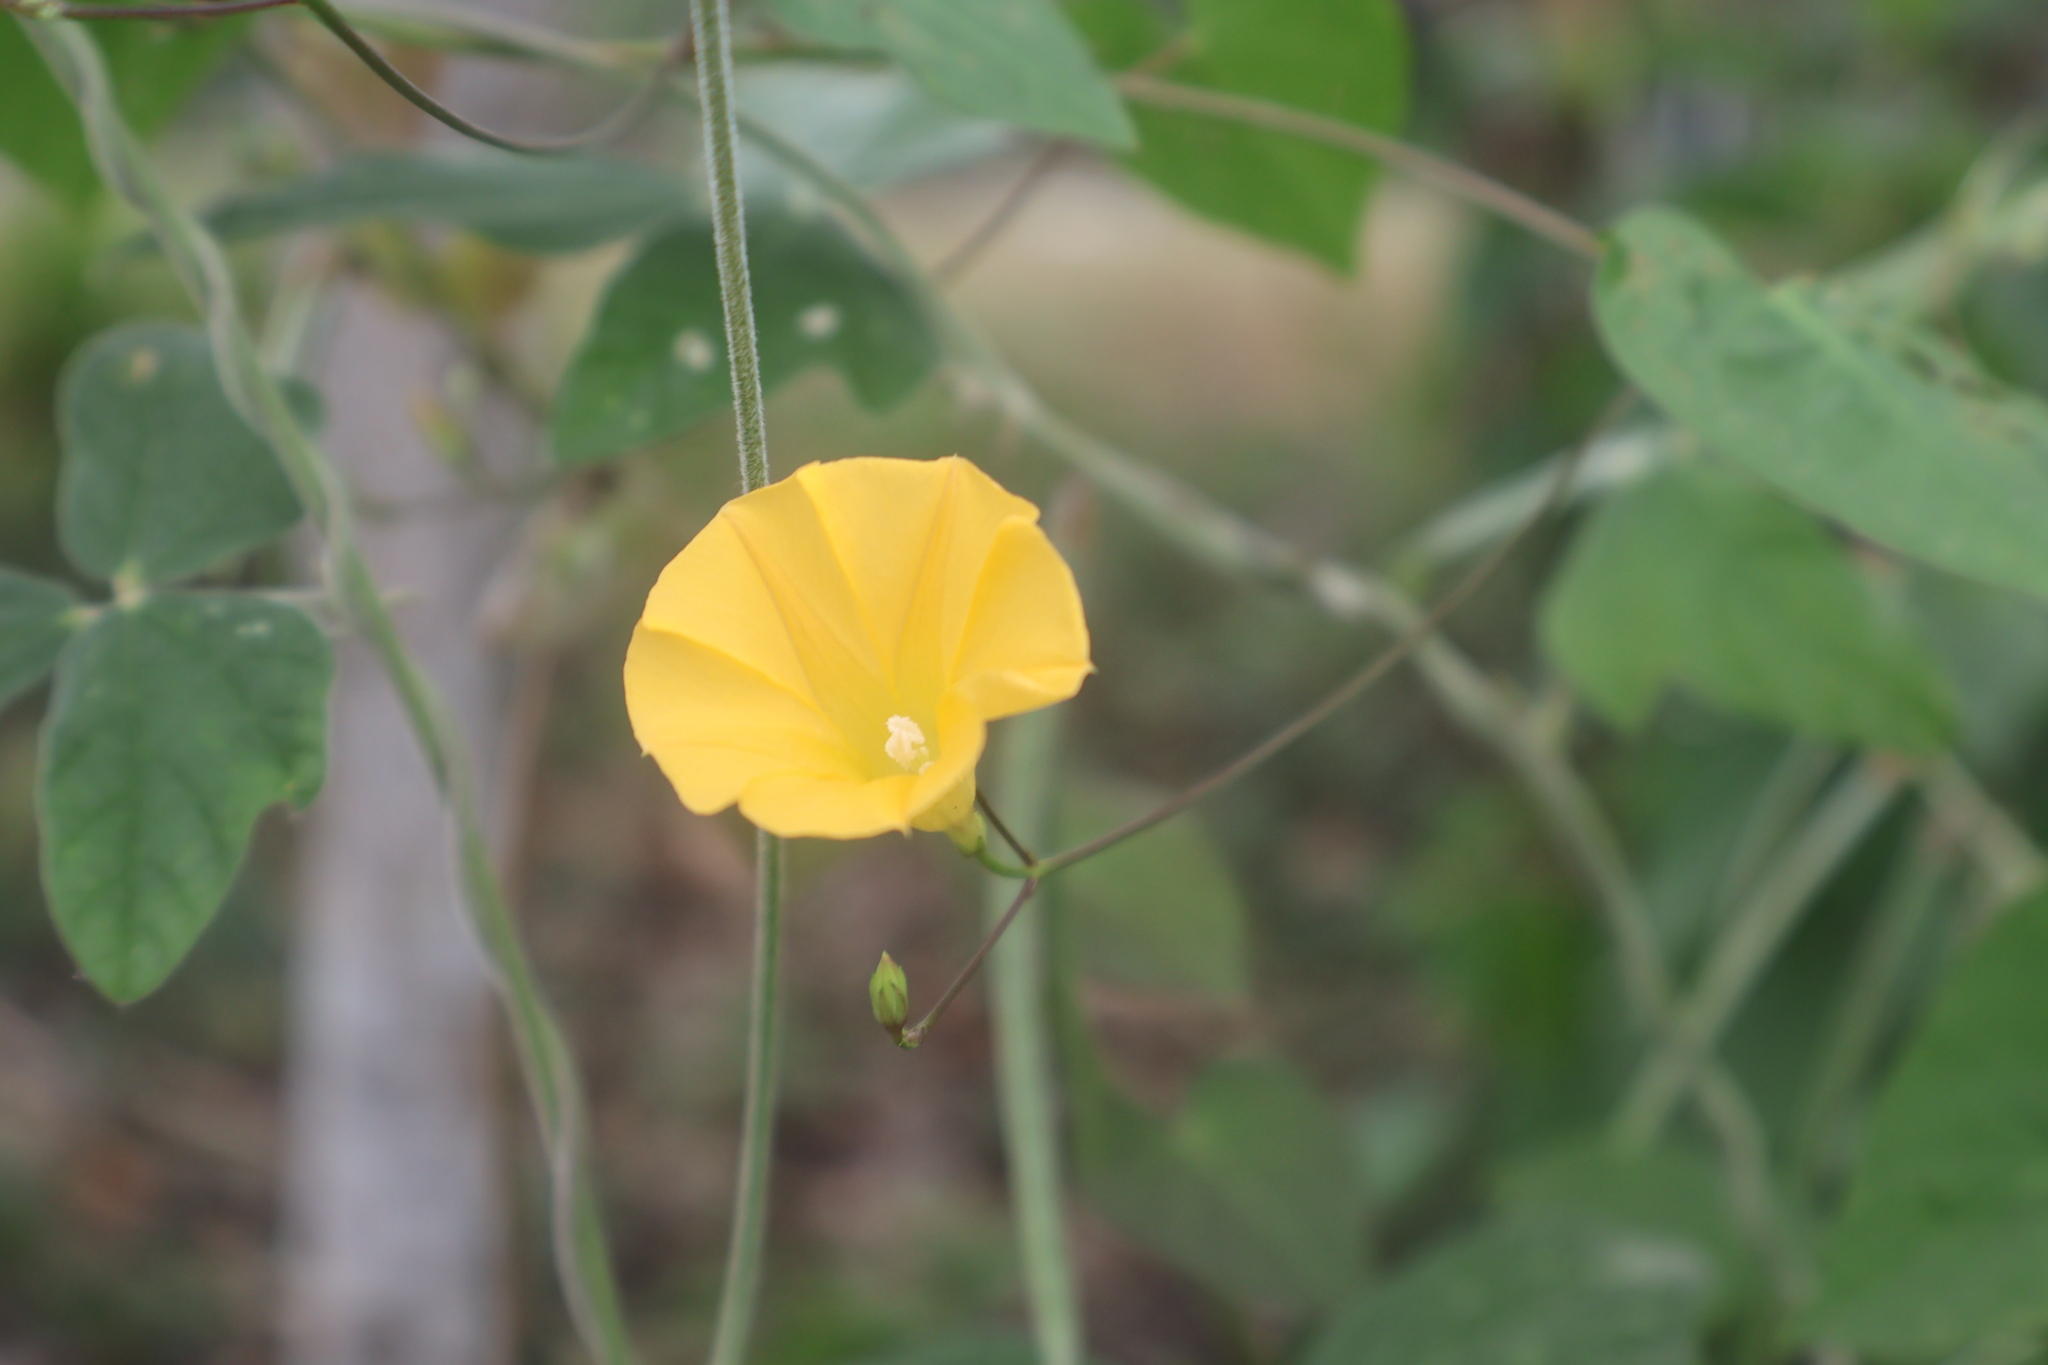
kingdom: Plantae
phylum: Tracheophyta
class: Magnoliopsida
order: Solanales
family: Convolvulaceae
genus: Ipomoea
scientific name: Ipomoea microsepala
